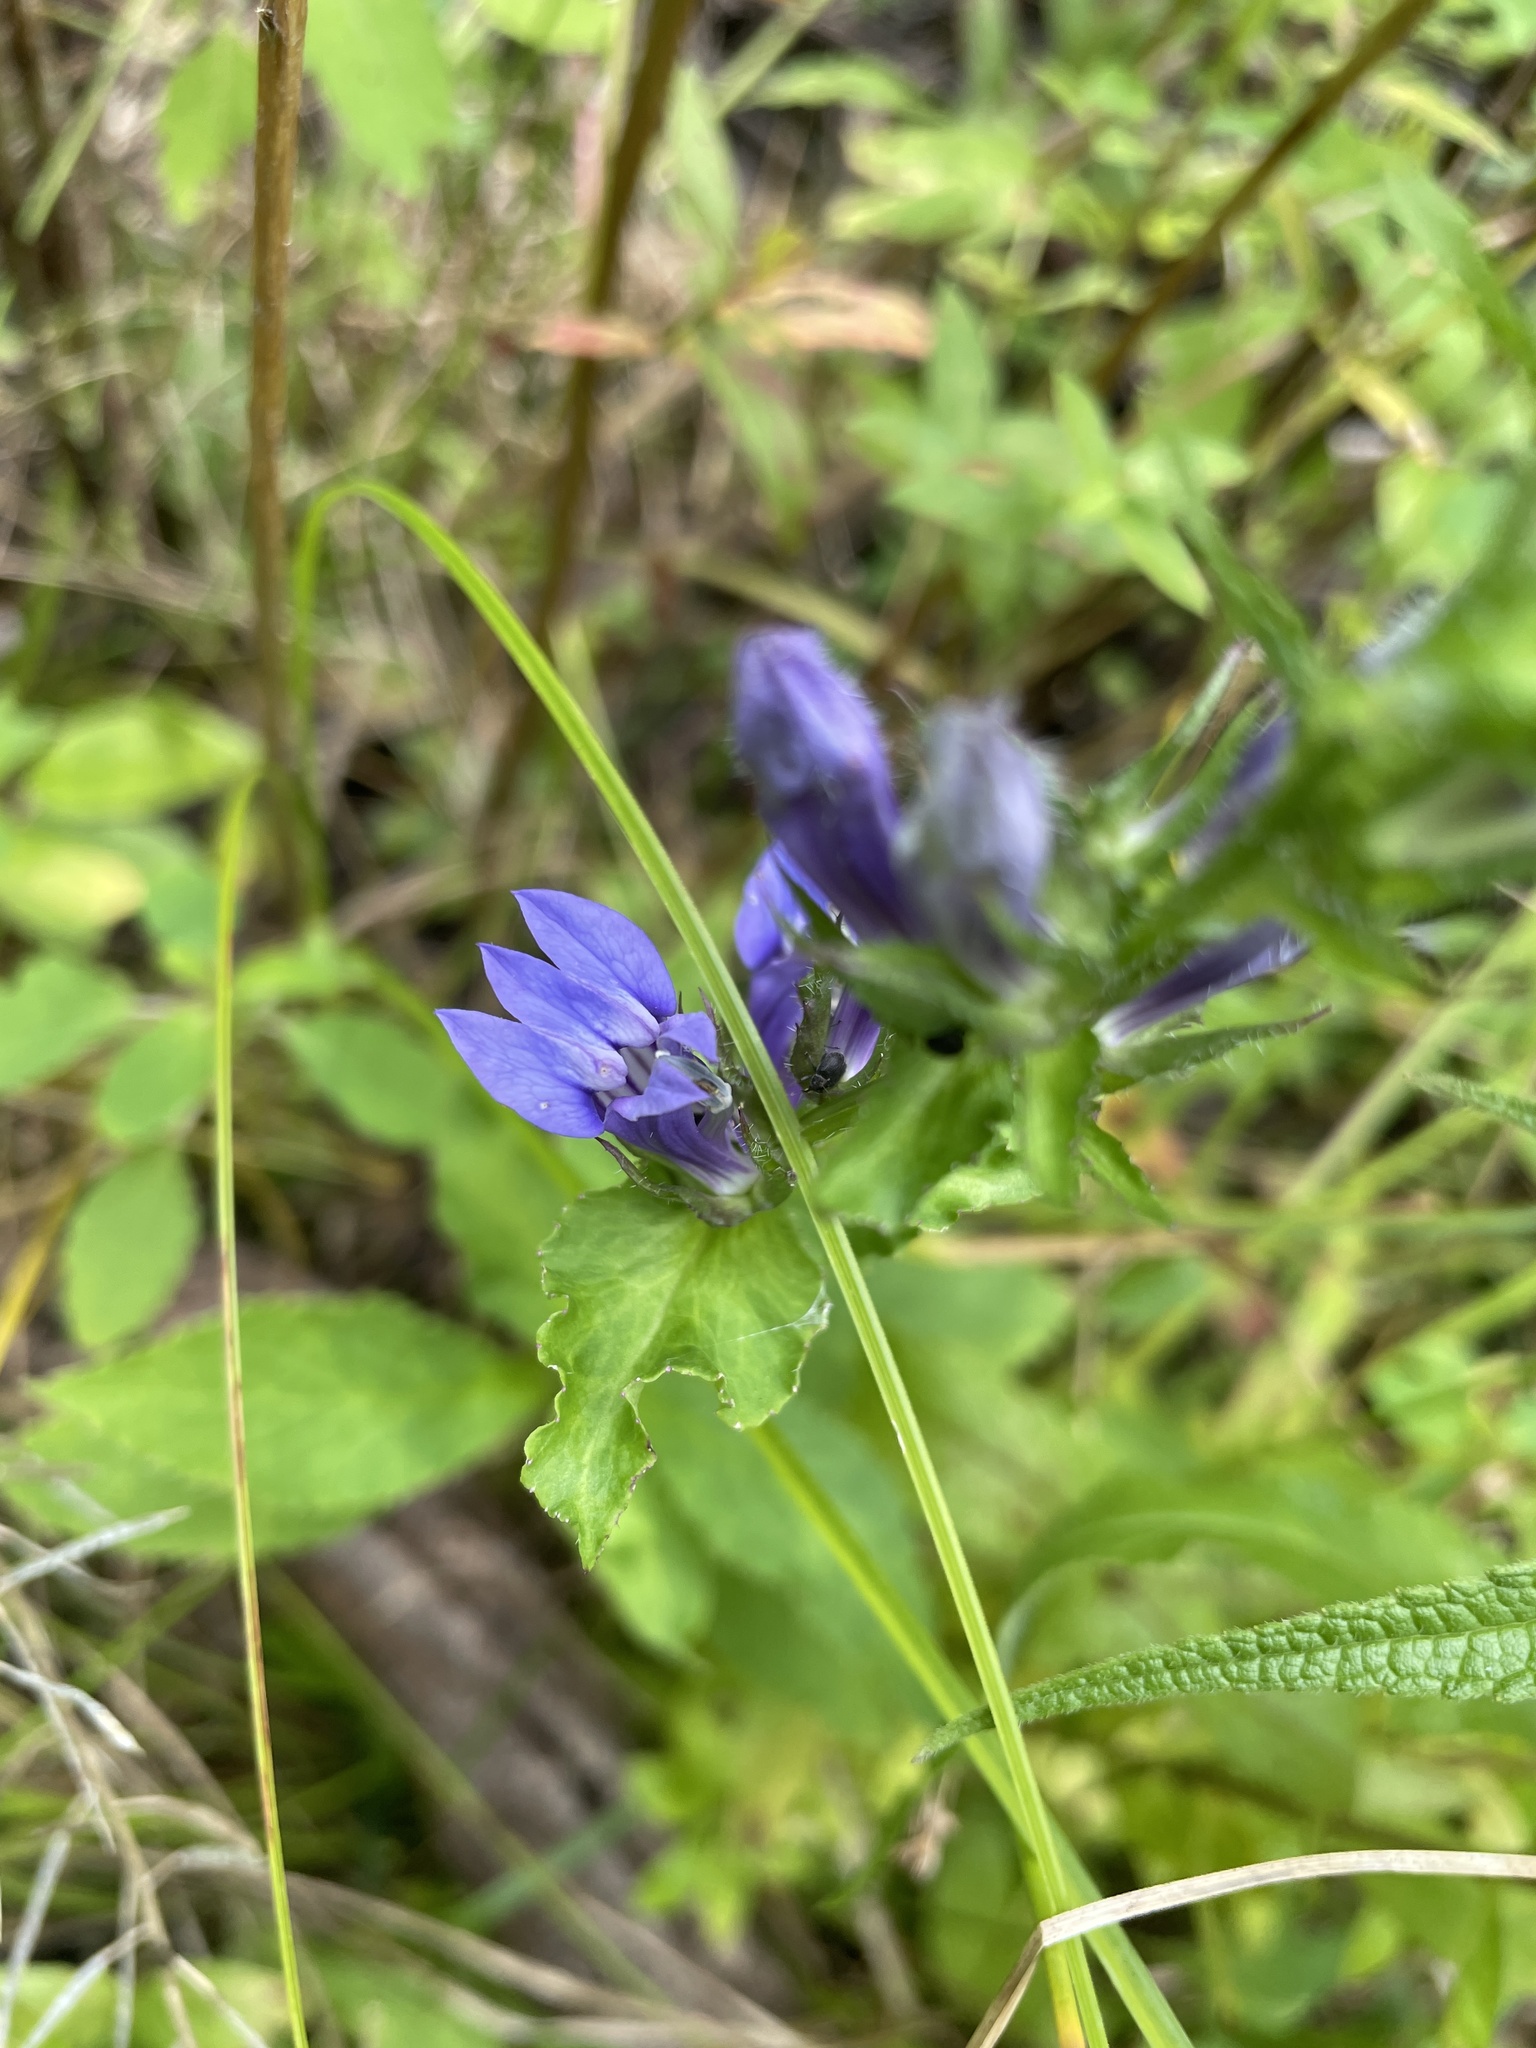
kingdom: Plantae
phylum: Tracheophyta
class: Magnoliopsida
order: Asterales
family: Campanulaceae
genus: Lobelia
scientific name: Lobelia siphilitica
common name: Great lobelia
